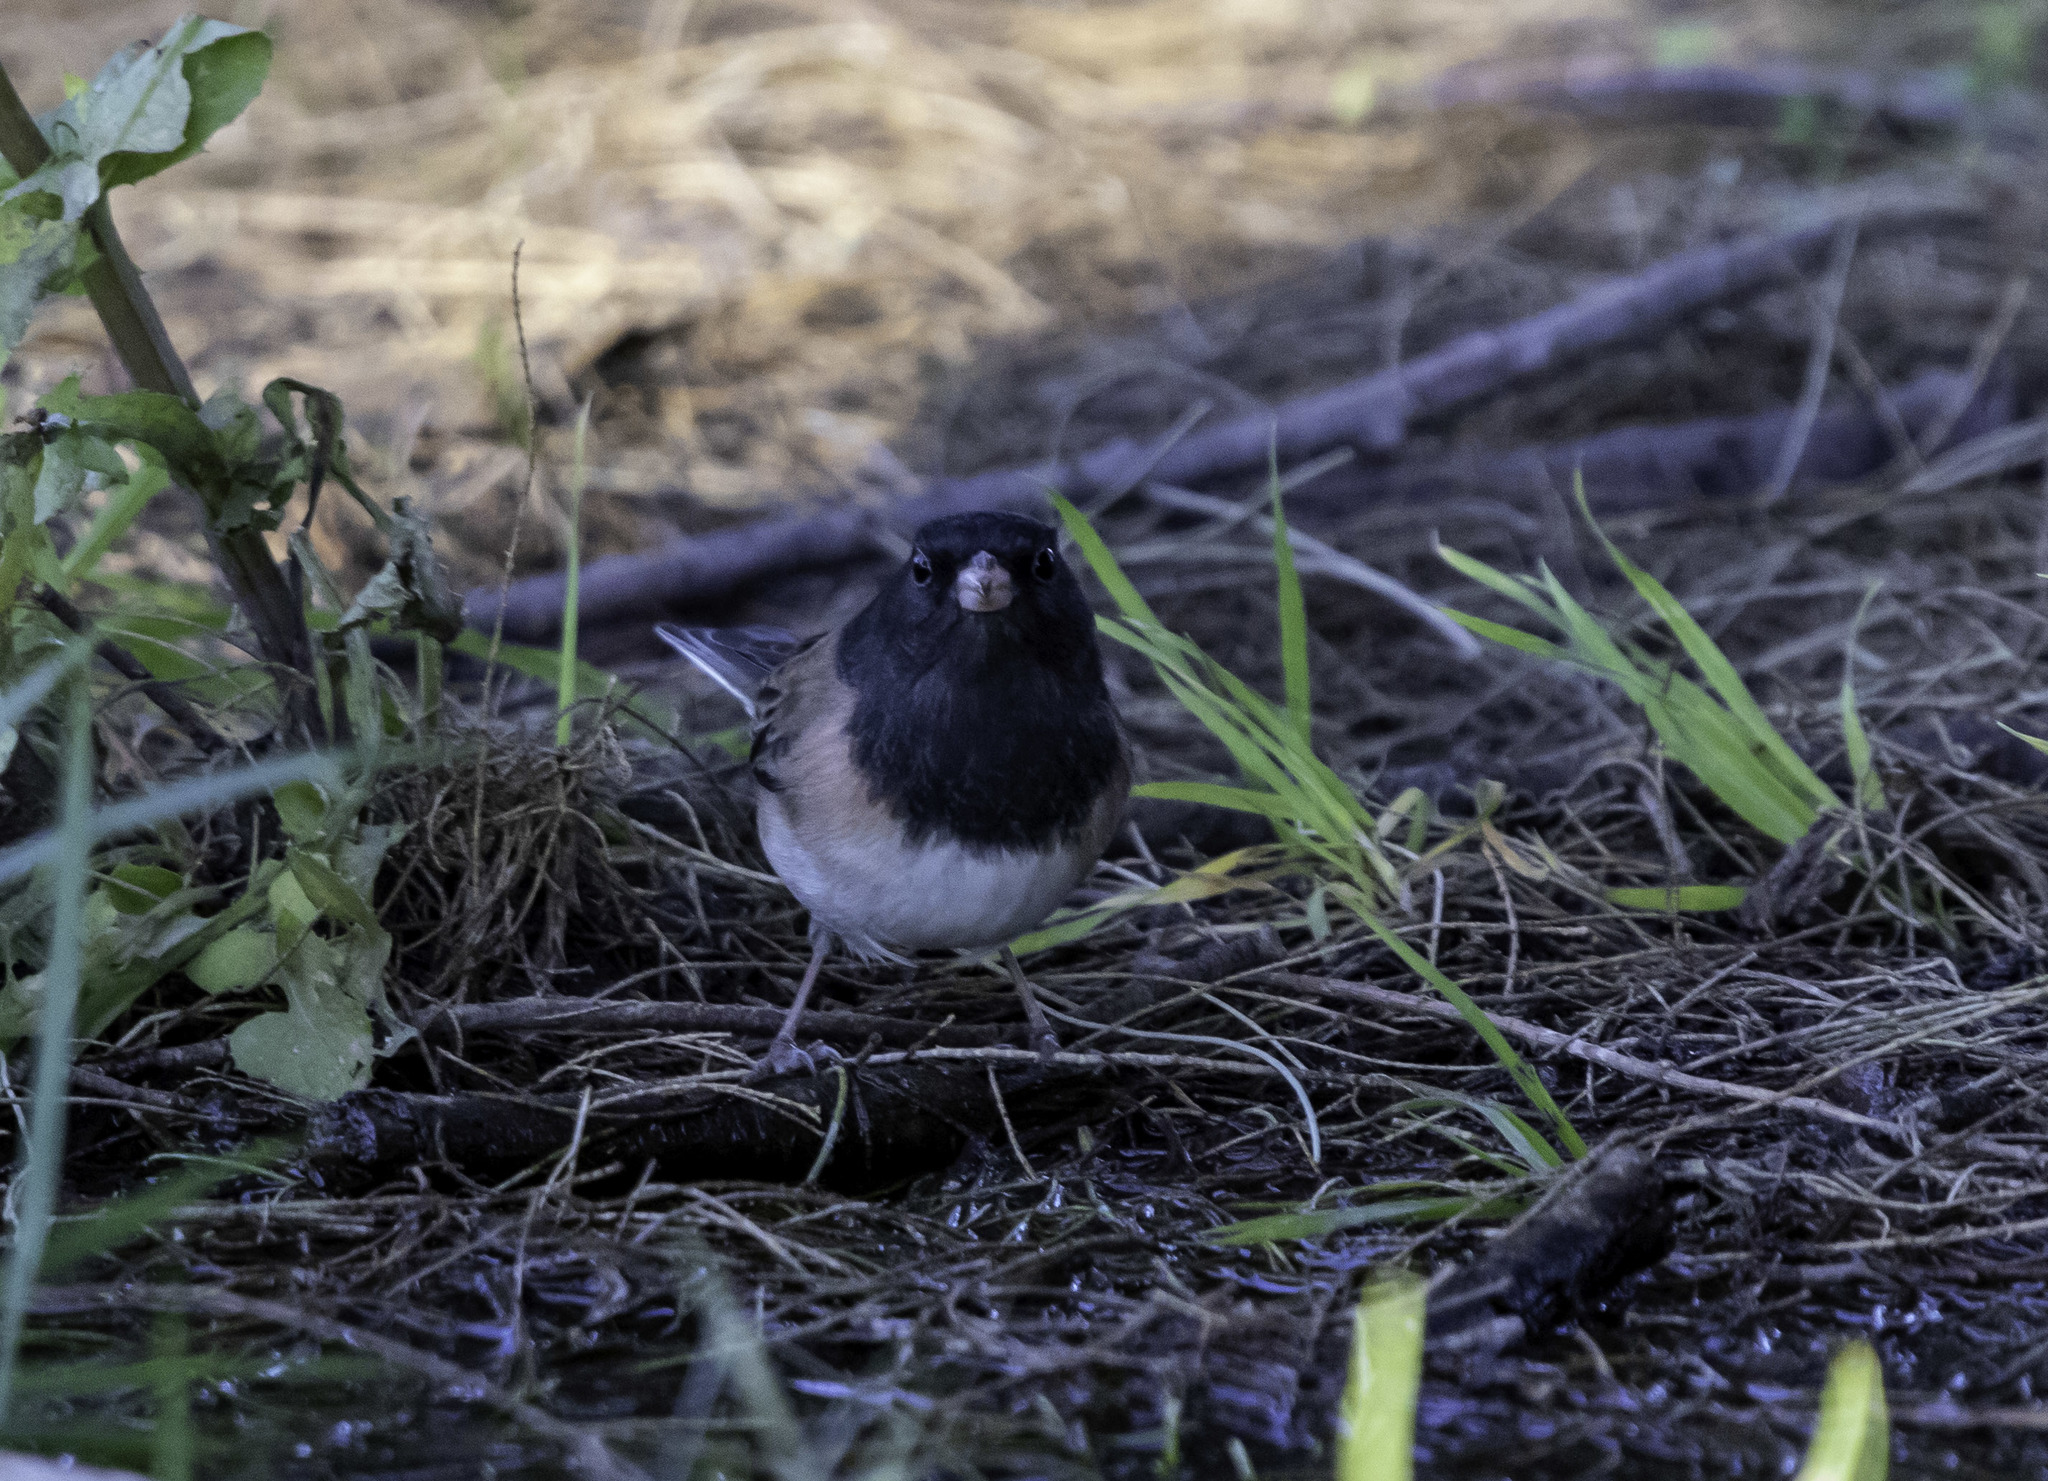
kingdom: Animalia
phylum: Chordata
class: Aves
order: Passeriformes
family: Passerellidae
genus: Junco
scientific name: Junco hyemalis
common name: Dark-eyed junco
